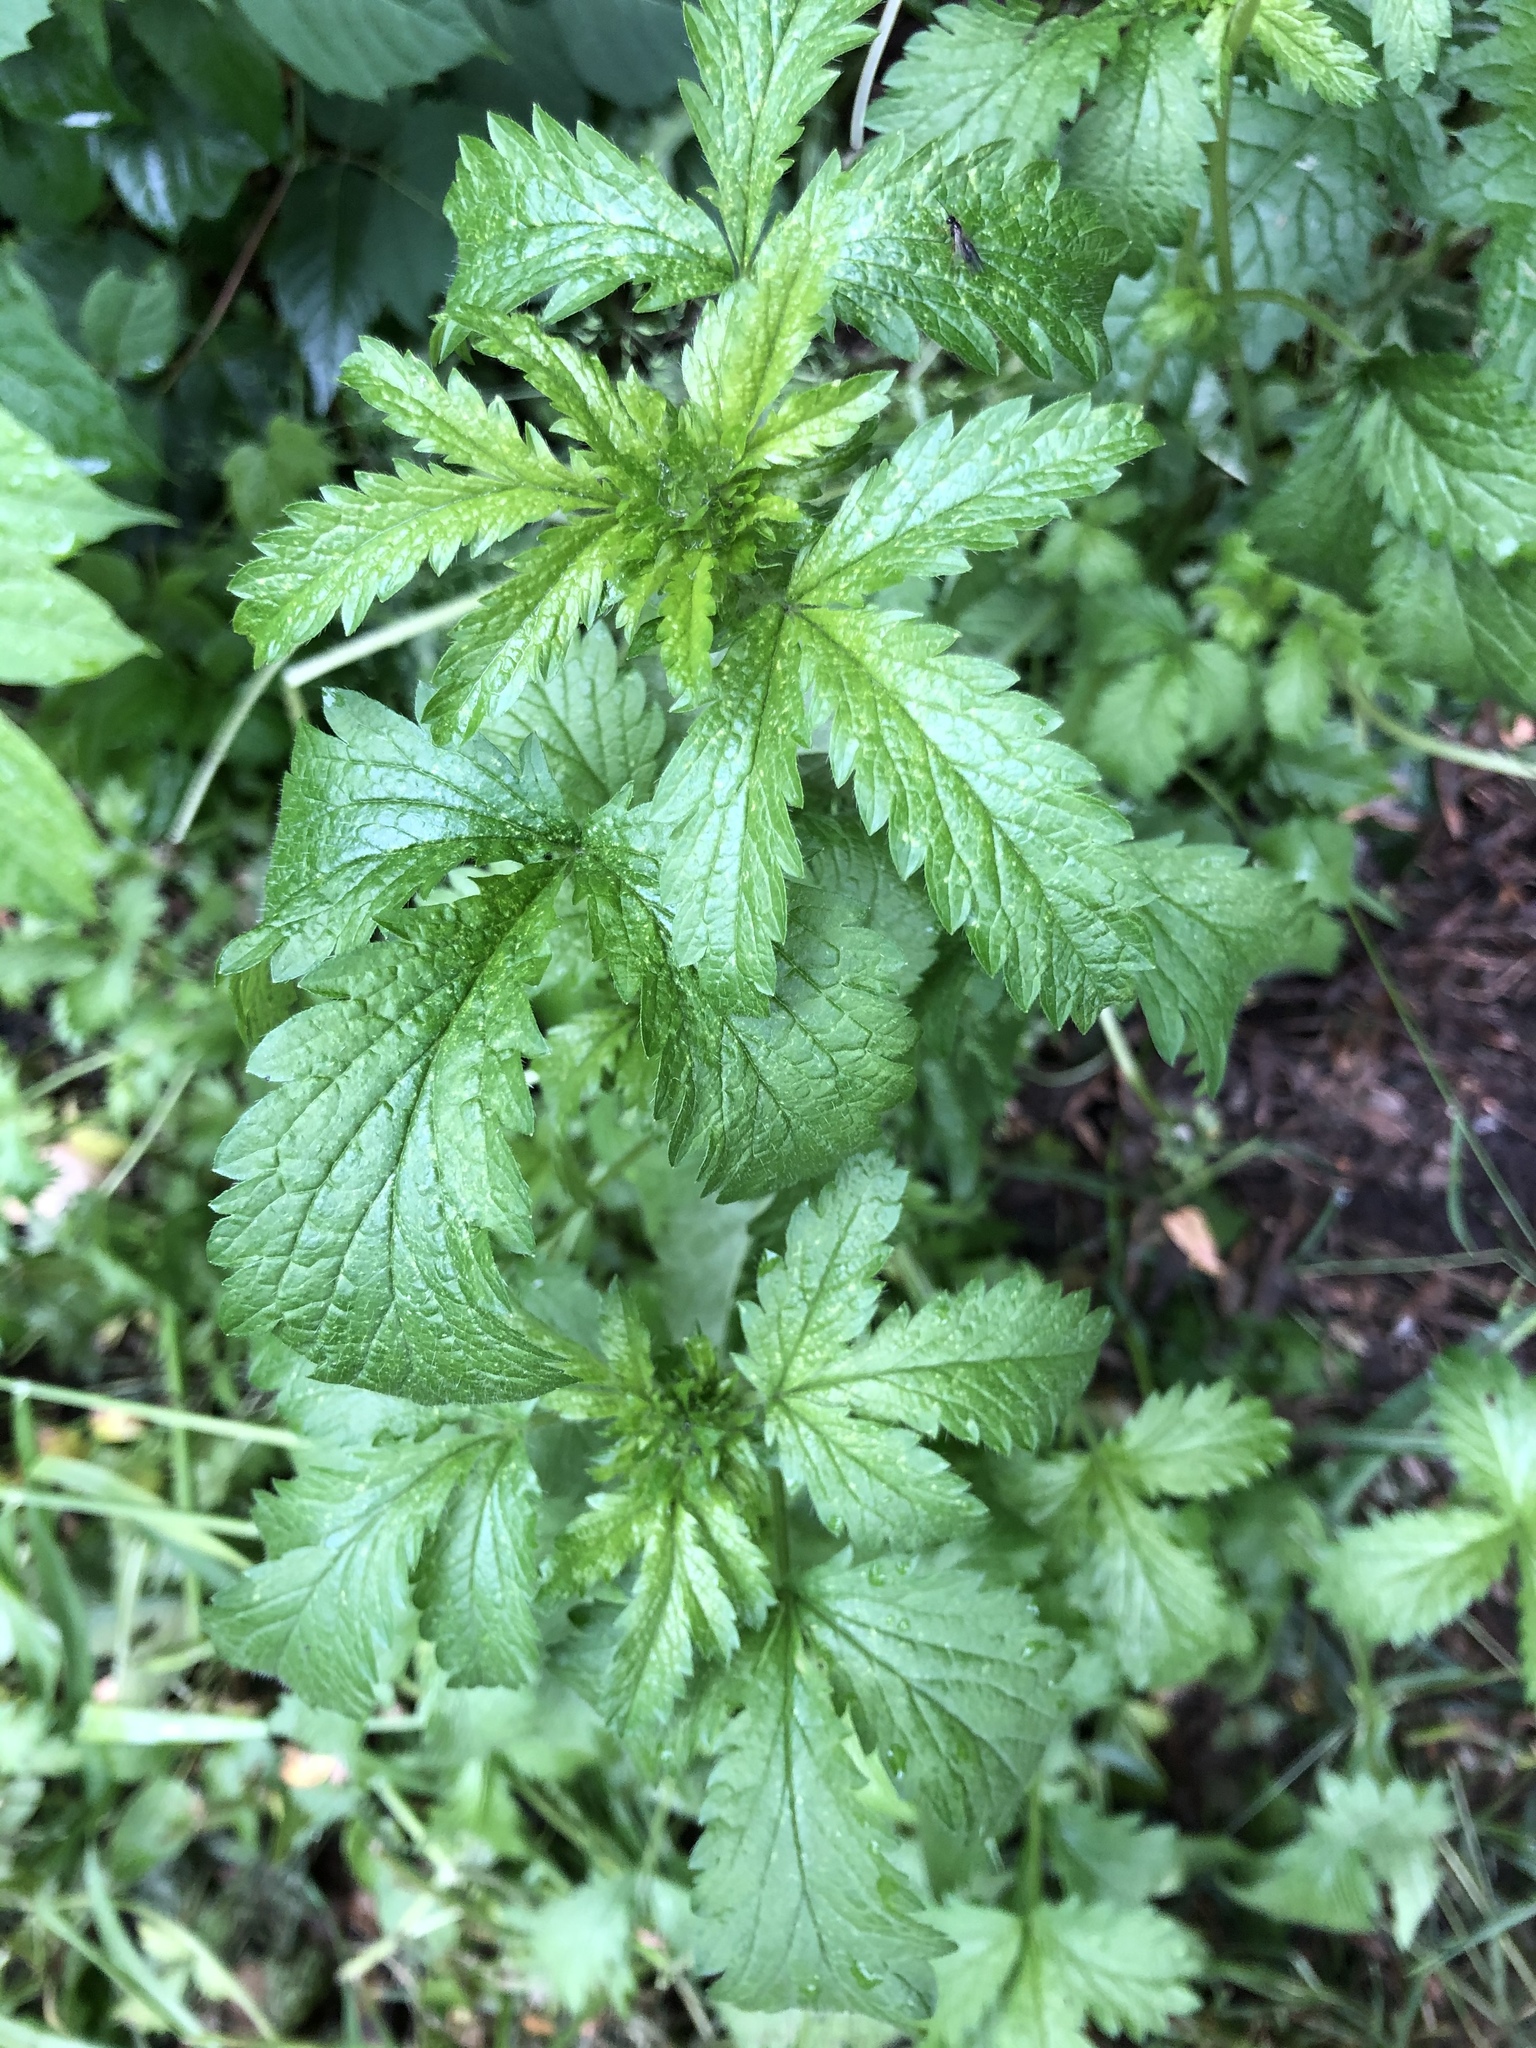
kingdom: Plantae
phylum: Tracheophyta
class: Magnoliopsida
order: Rosales
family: Rosaceae
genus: Potentilla
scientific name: Potentilla norvegica
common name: Ternate-leaved cinquefoil
